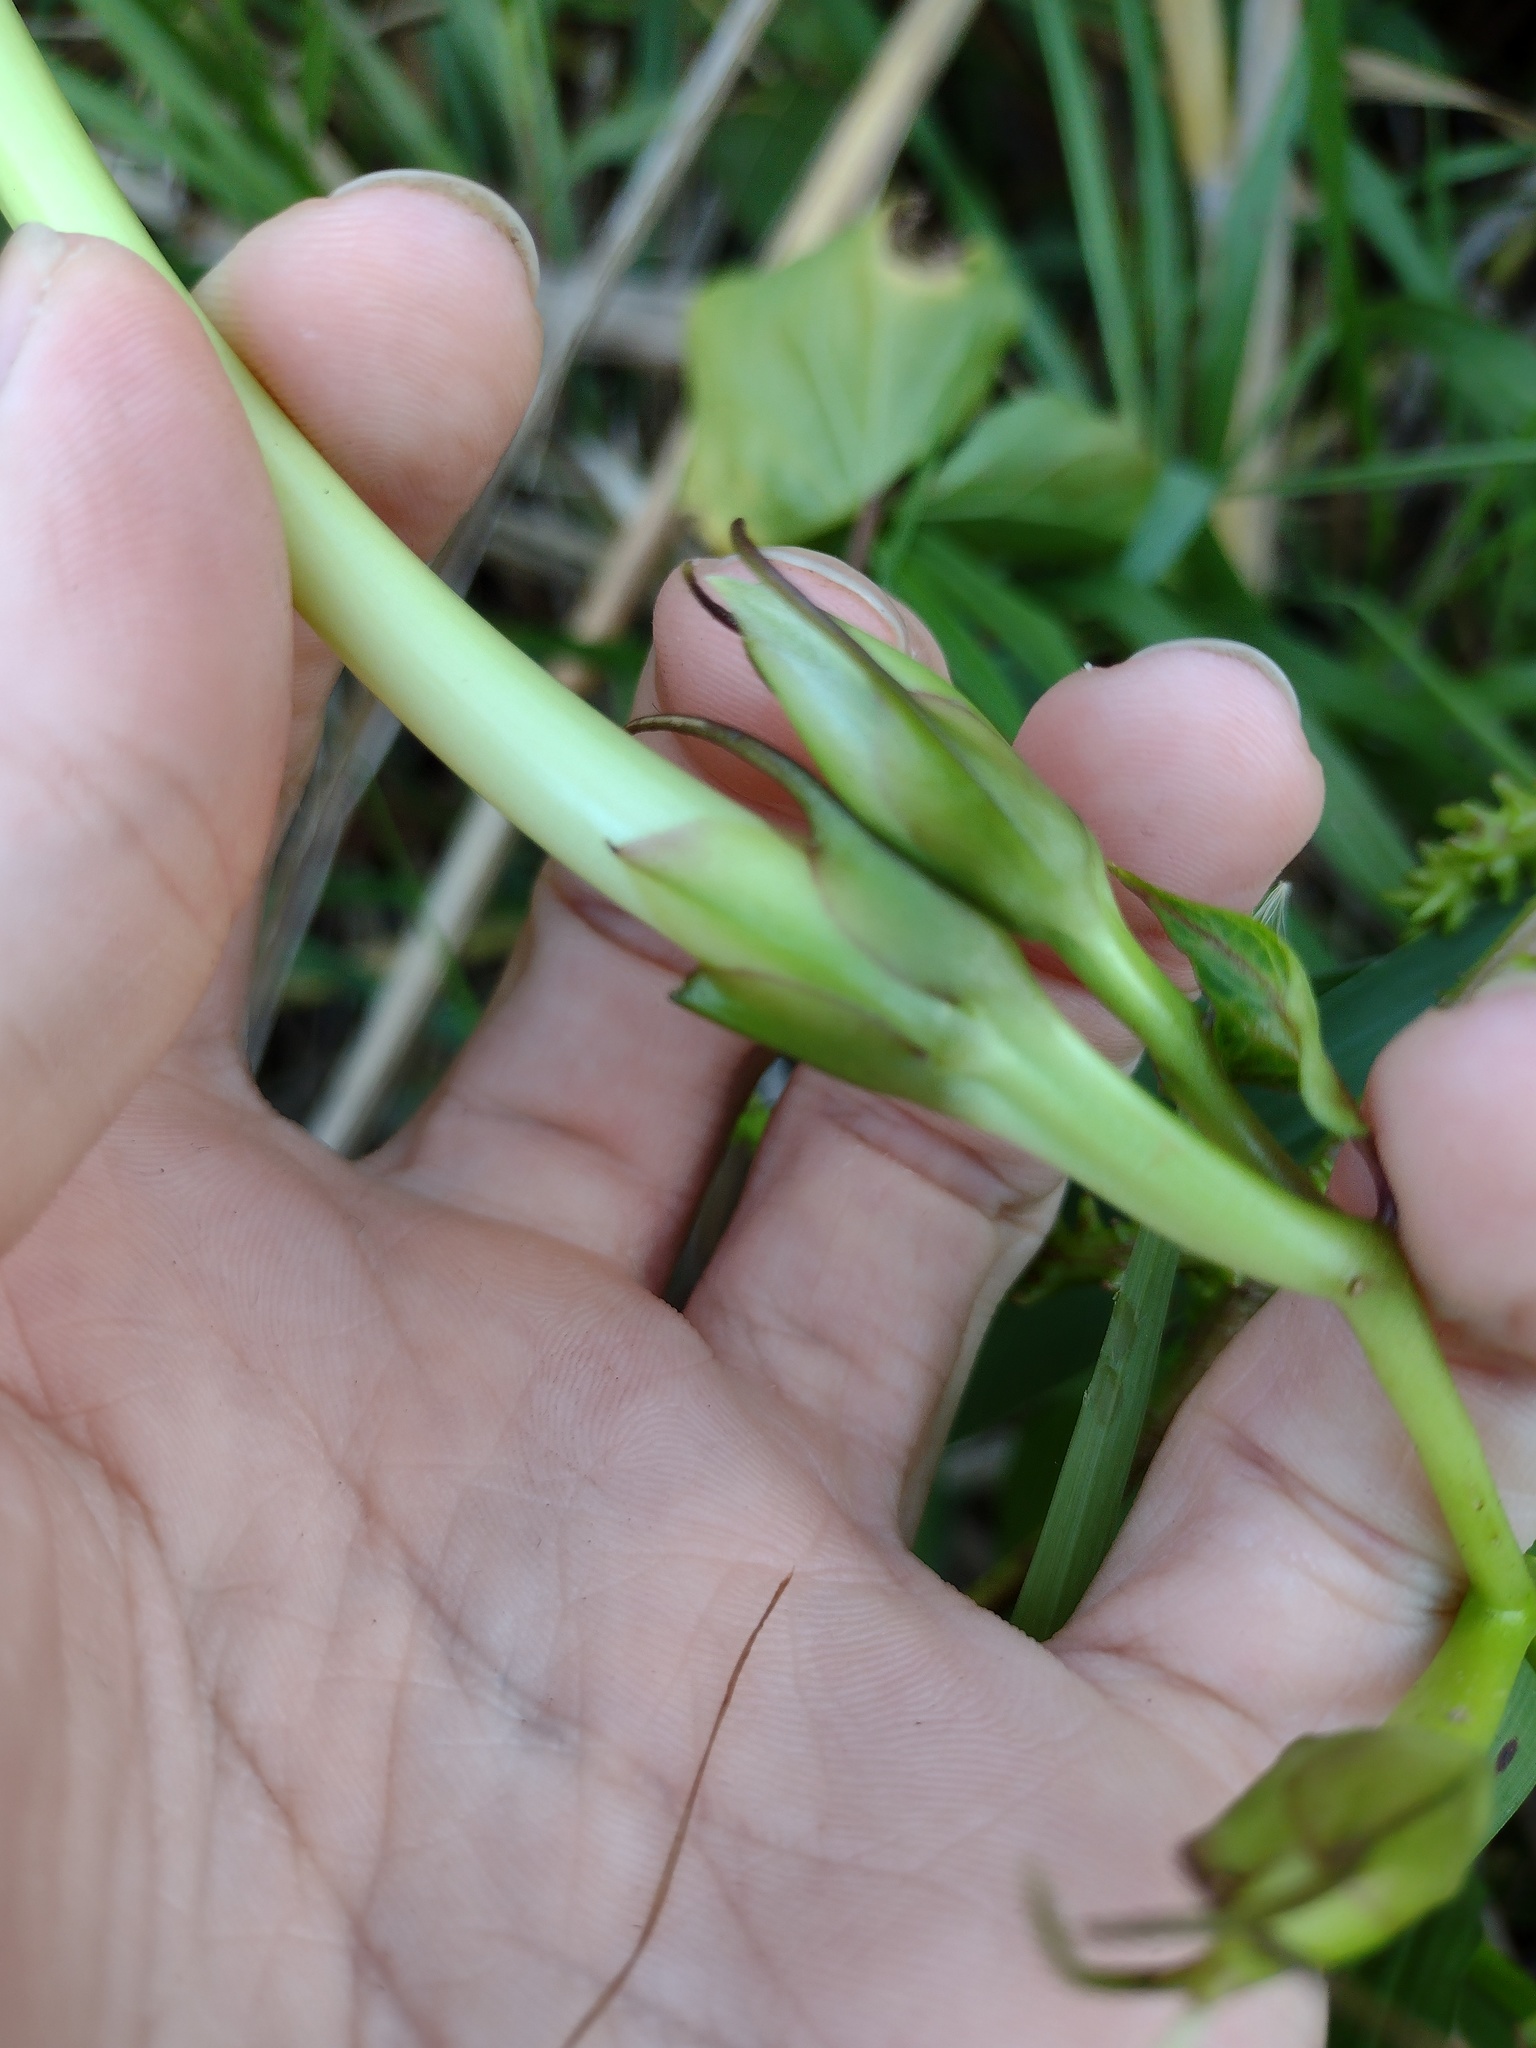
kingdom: Plantae
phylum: Tracheophyta
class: Magnoliopsida
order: Solanales
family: Convolvulaceae
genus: Ipomoea
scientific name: Ipomoea alba
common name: Moonflower
